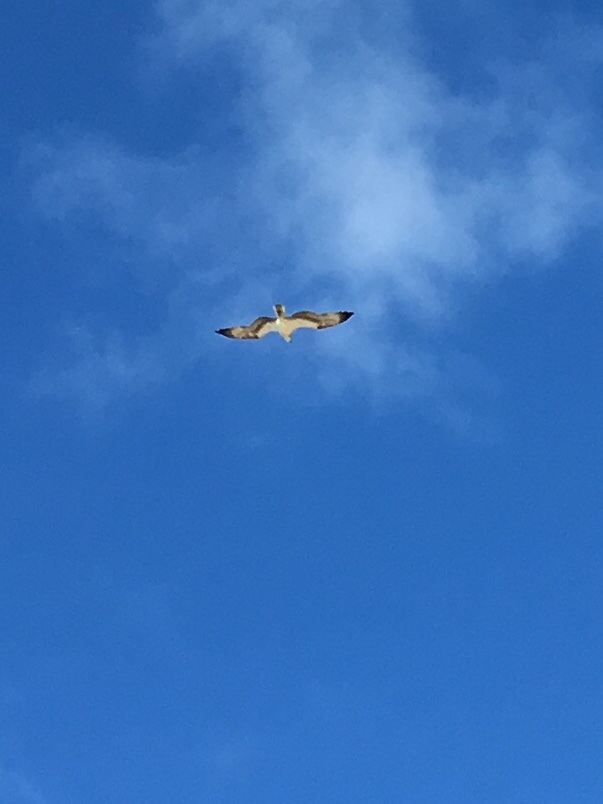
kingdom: Animalia
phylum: Chordata
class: Aves
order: Accipitriformes
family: Pandionidae
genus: Pandion
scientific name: Pandion haliaetus
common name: Osprey
